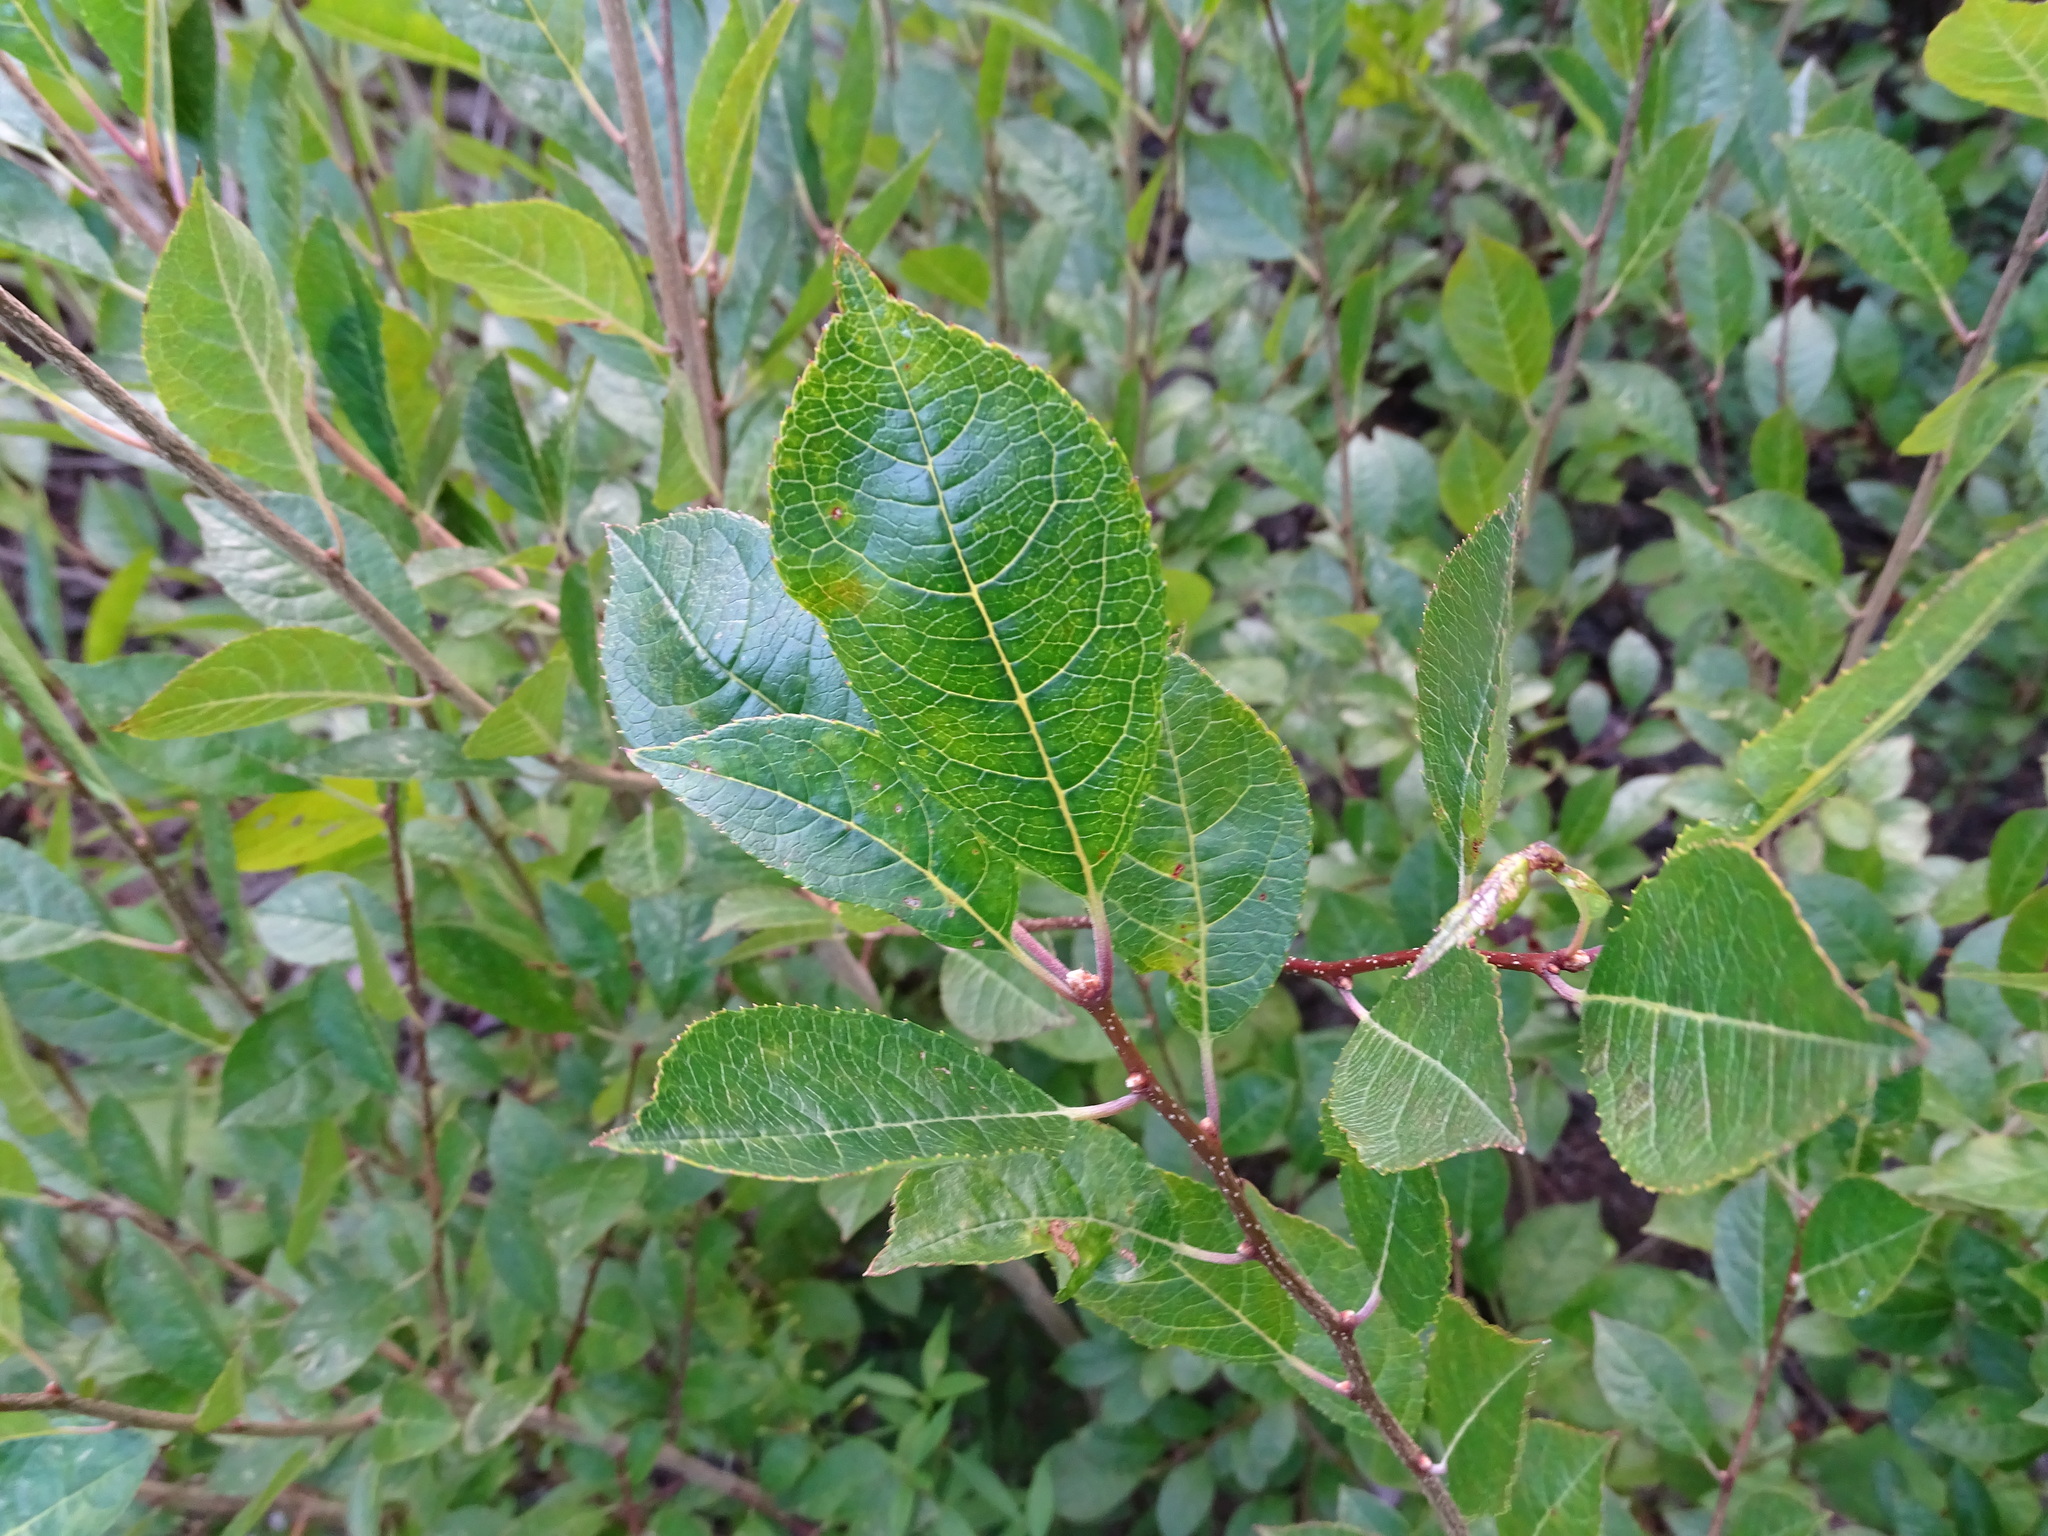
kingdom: Plantae
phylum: Tracheophyta
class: Magnoliopsida
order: Aquifoliales
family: Aquifoliaceae
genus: Ilex
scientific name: Ilex verticillata
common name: Virginia winterberry
